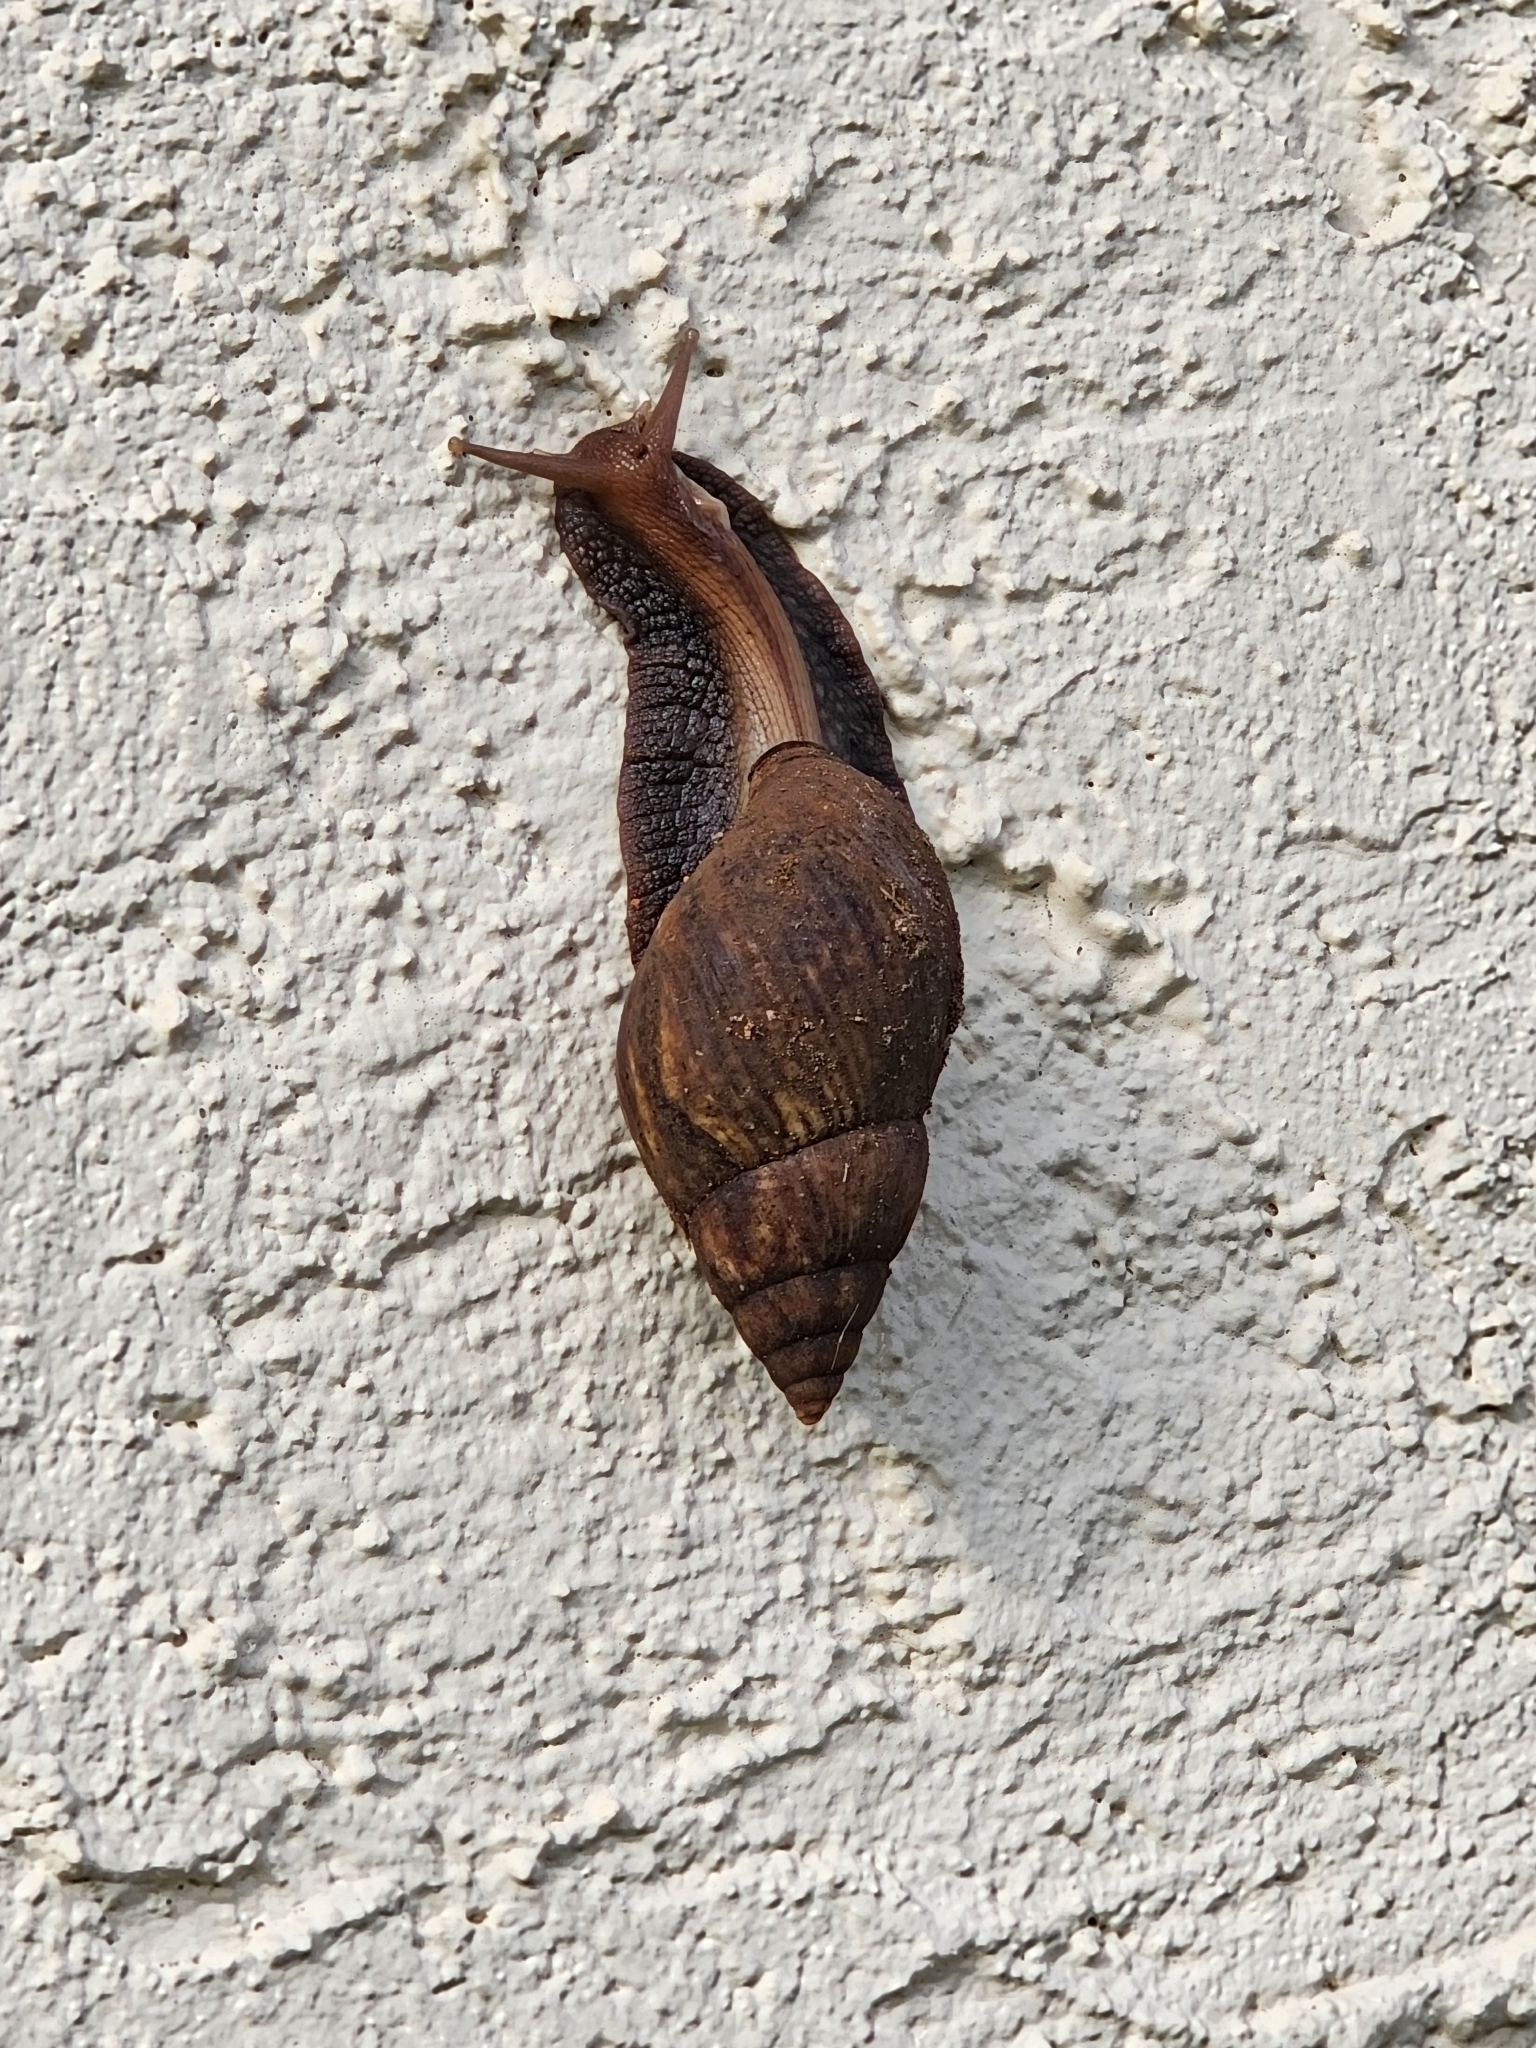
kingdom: Animalia
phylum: Mollusca
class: Gastropoda
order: Stylommatophora
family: Achatinidae
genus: Lissachatina
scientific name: Lissachatina fulica
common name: Giant african snail
